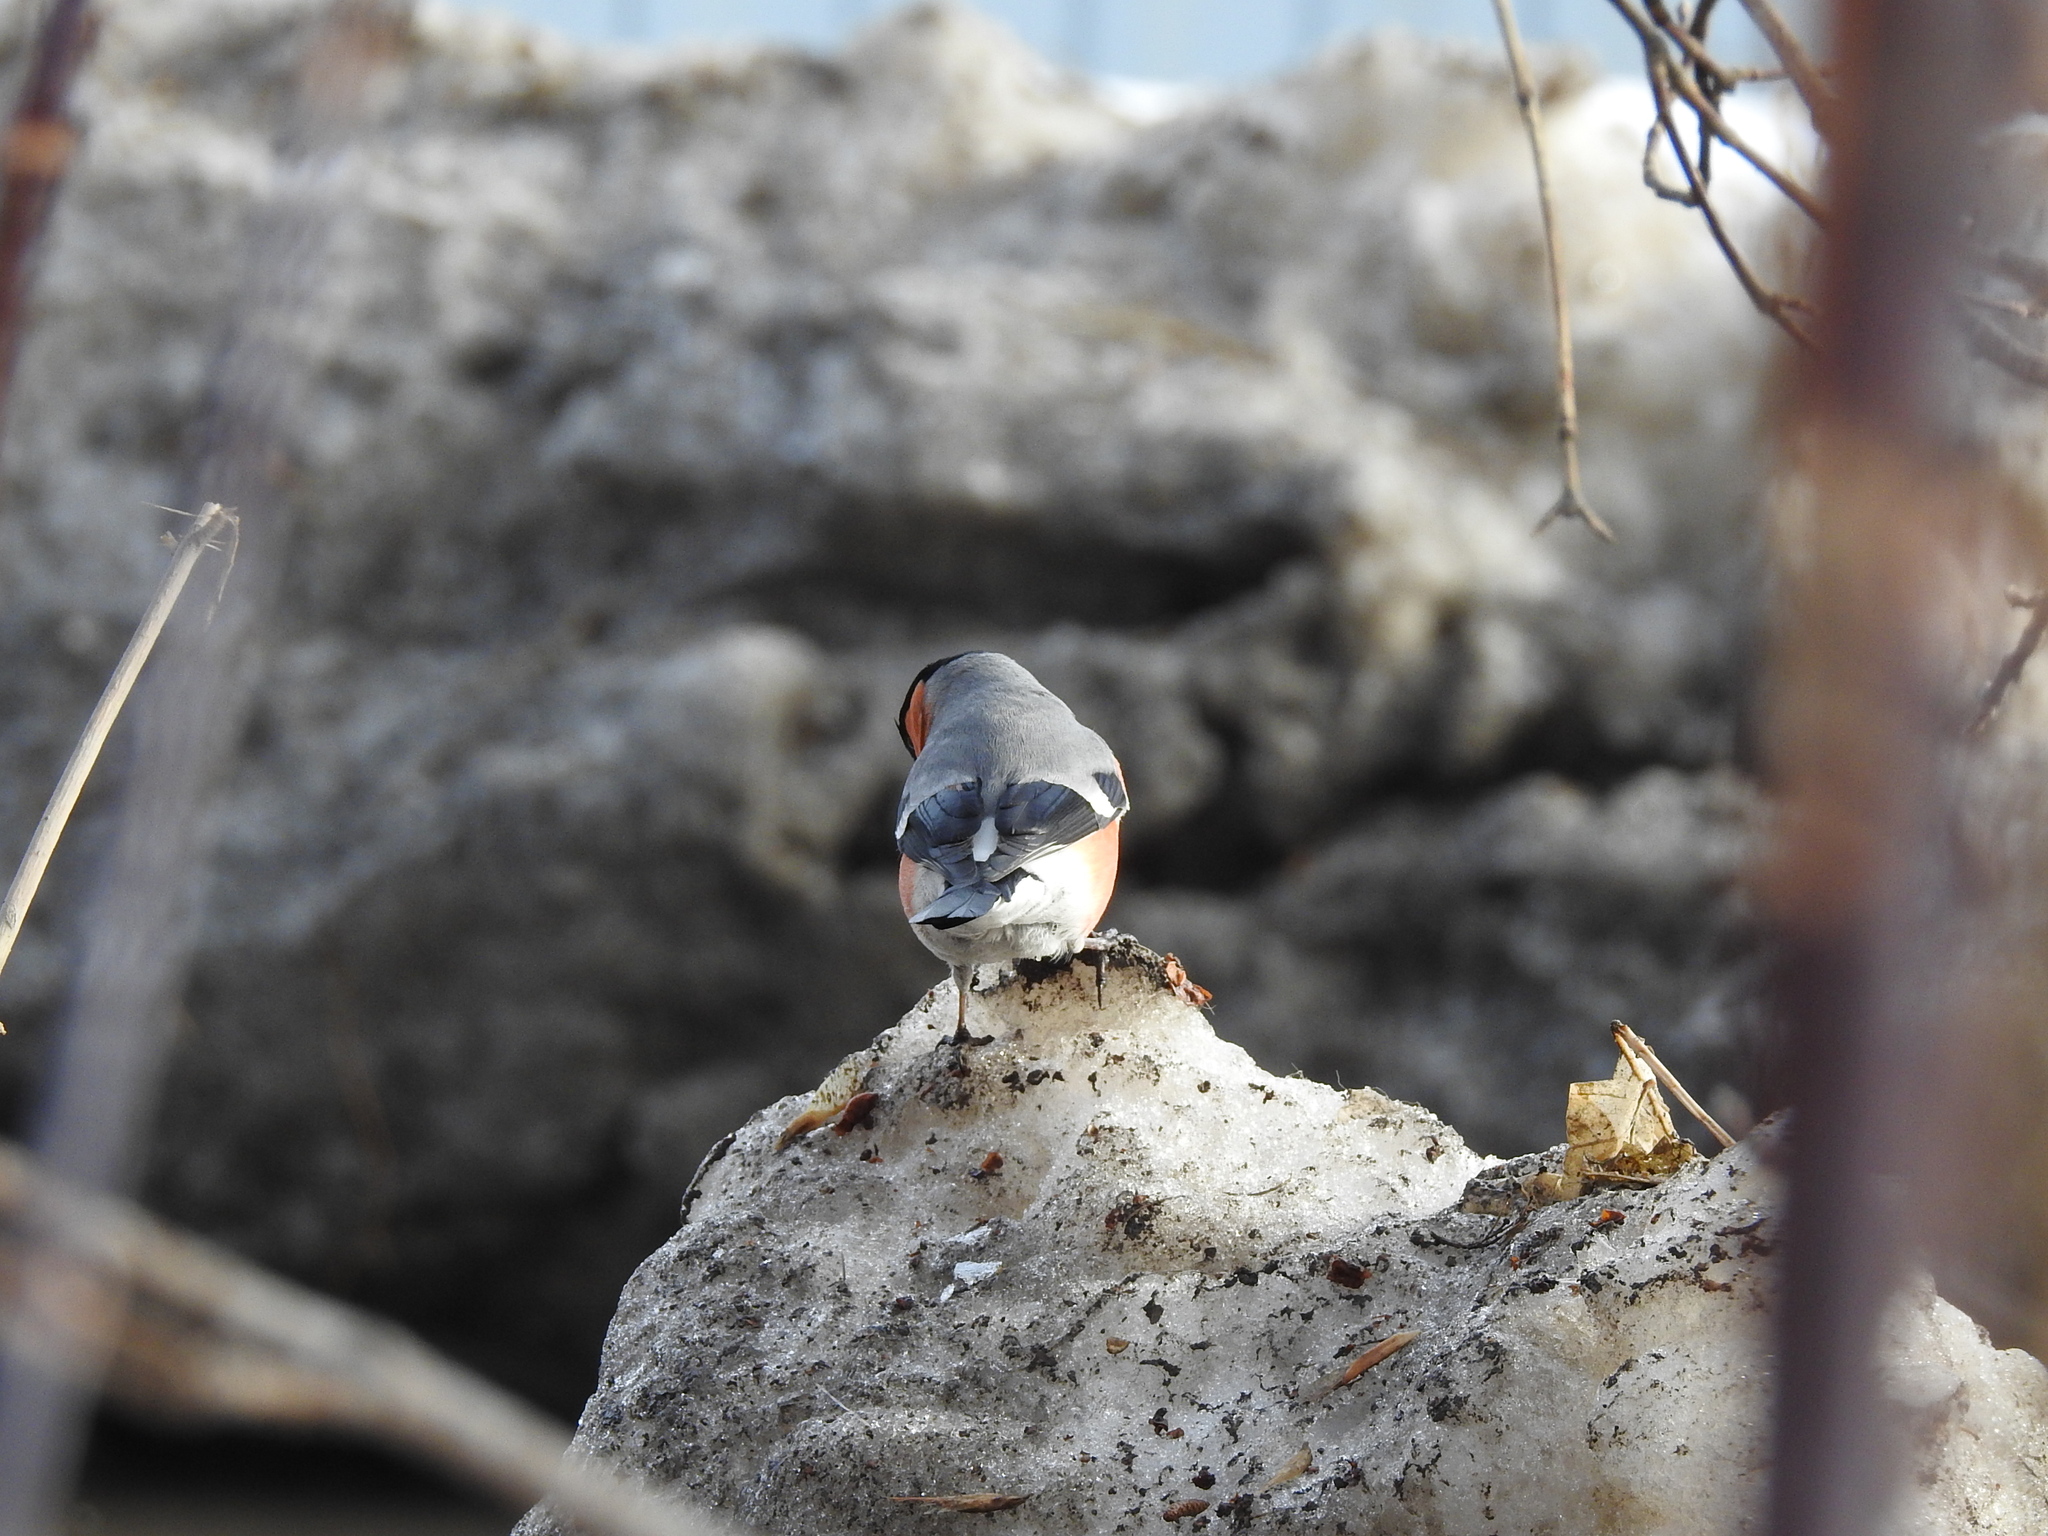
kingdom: Animalia
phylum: Chordata
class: Aves
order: Passeriformes
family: Fringillidae
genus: Pyrrhula
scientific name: Pyrrhula pyrrhula
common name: Eurasian bullfinch
